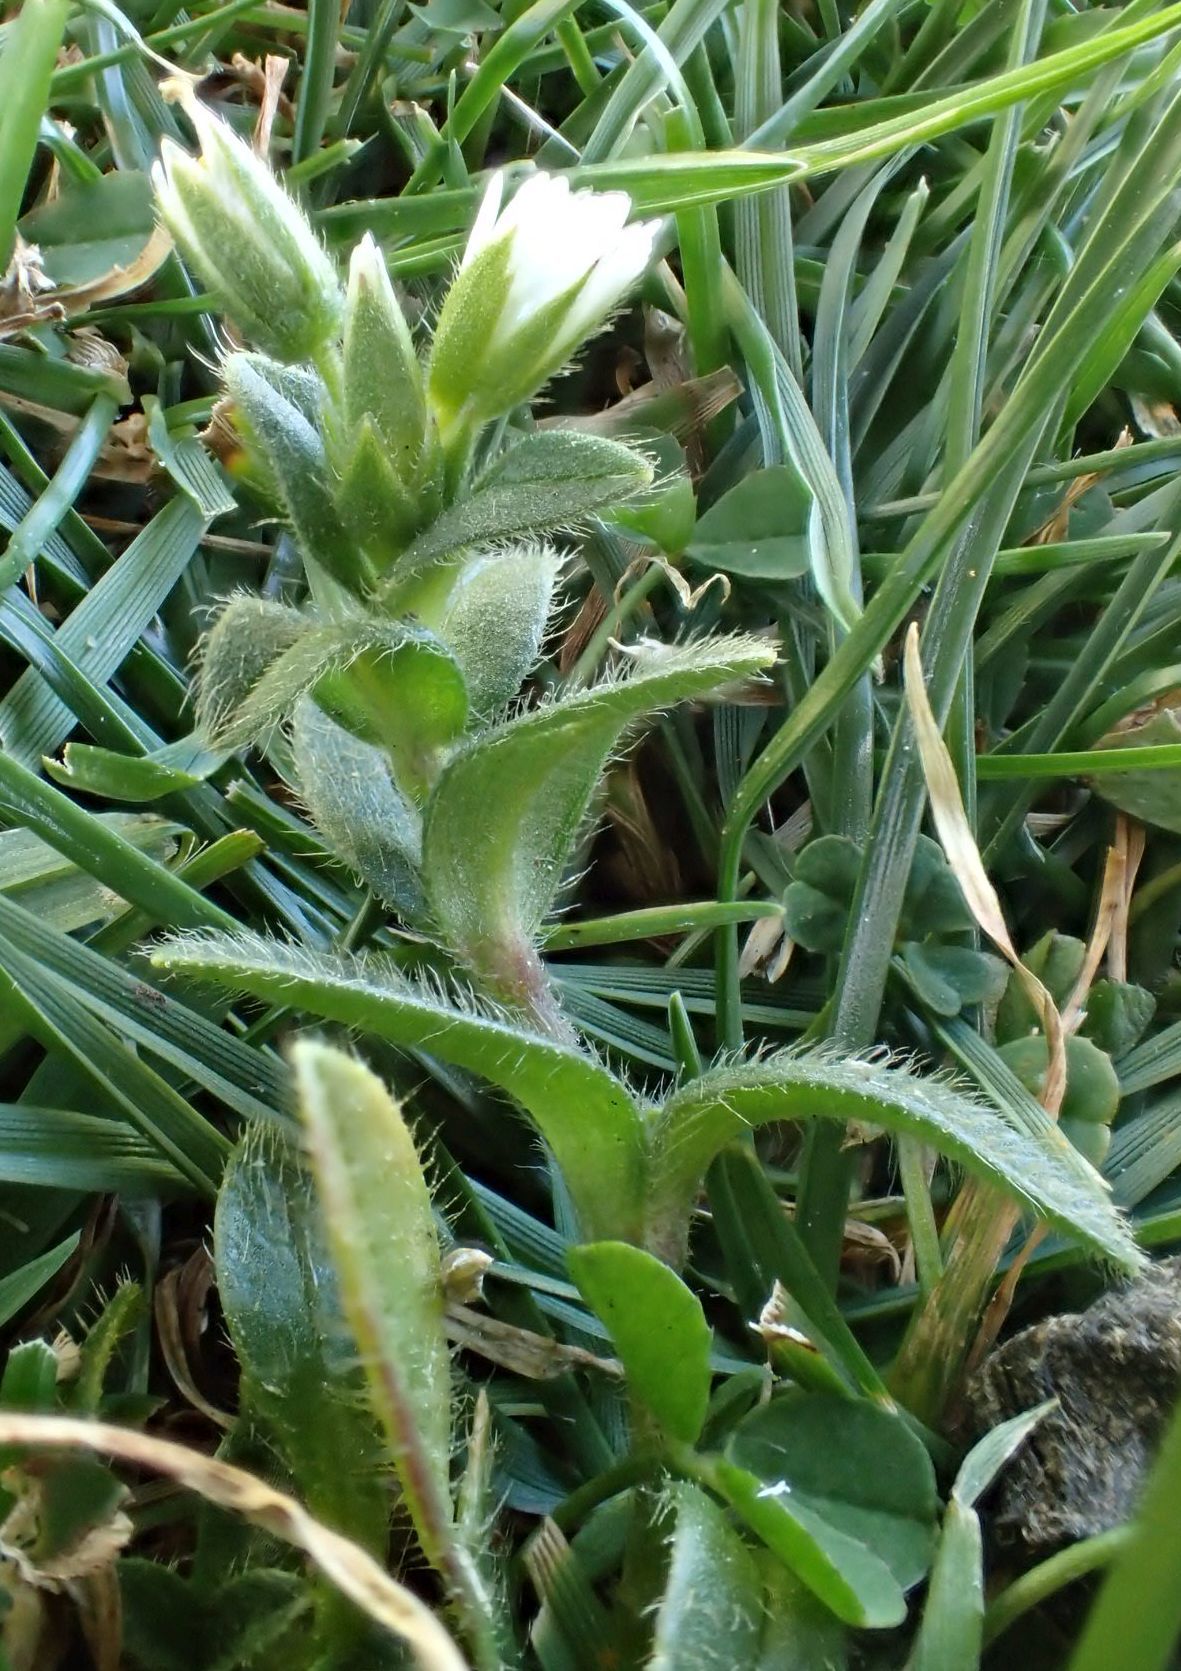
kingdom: Plantae
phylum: Tracheophyta
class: Magnoliopsida
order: Caryophyllales
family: Caryophyllaceae
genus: Cerastium
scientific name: Cerastium fontanum
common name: Common mouse-ear
